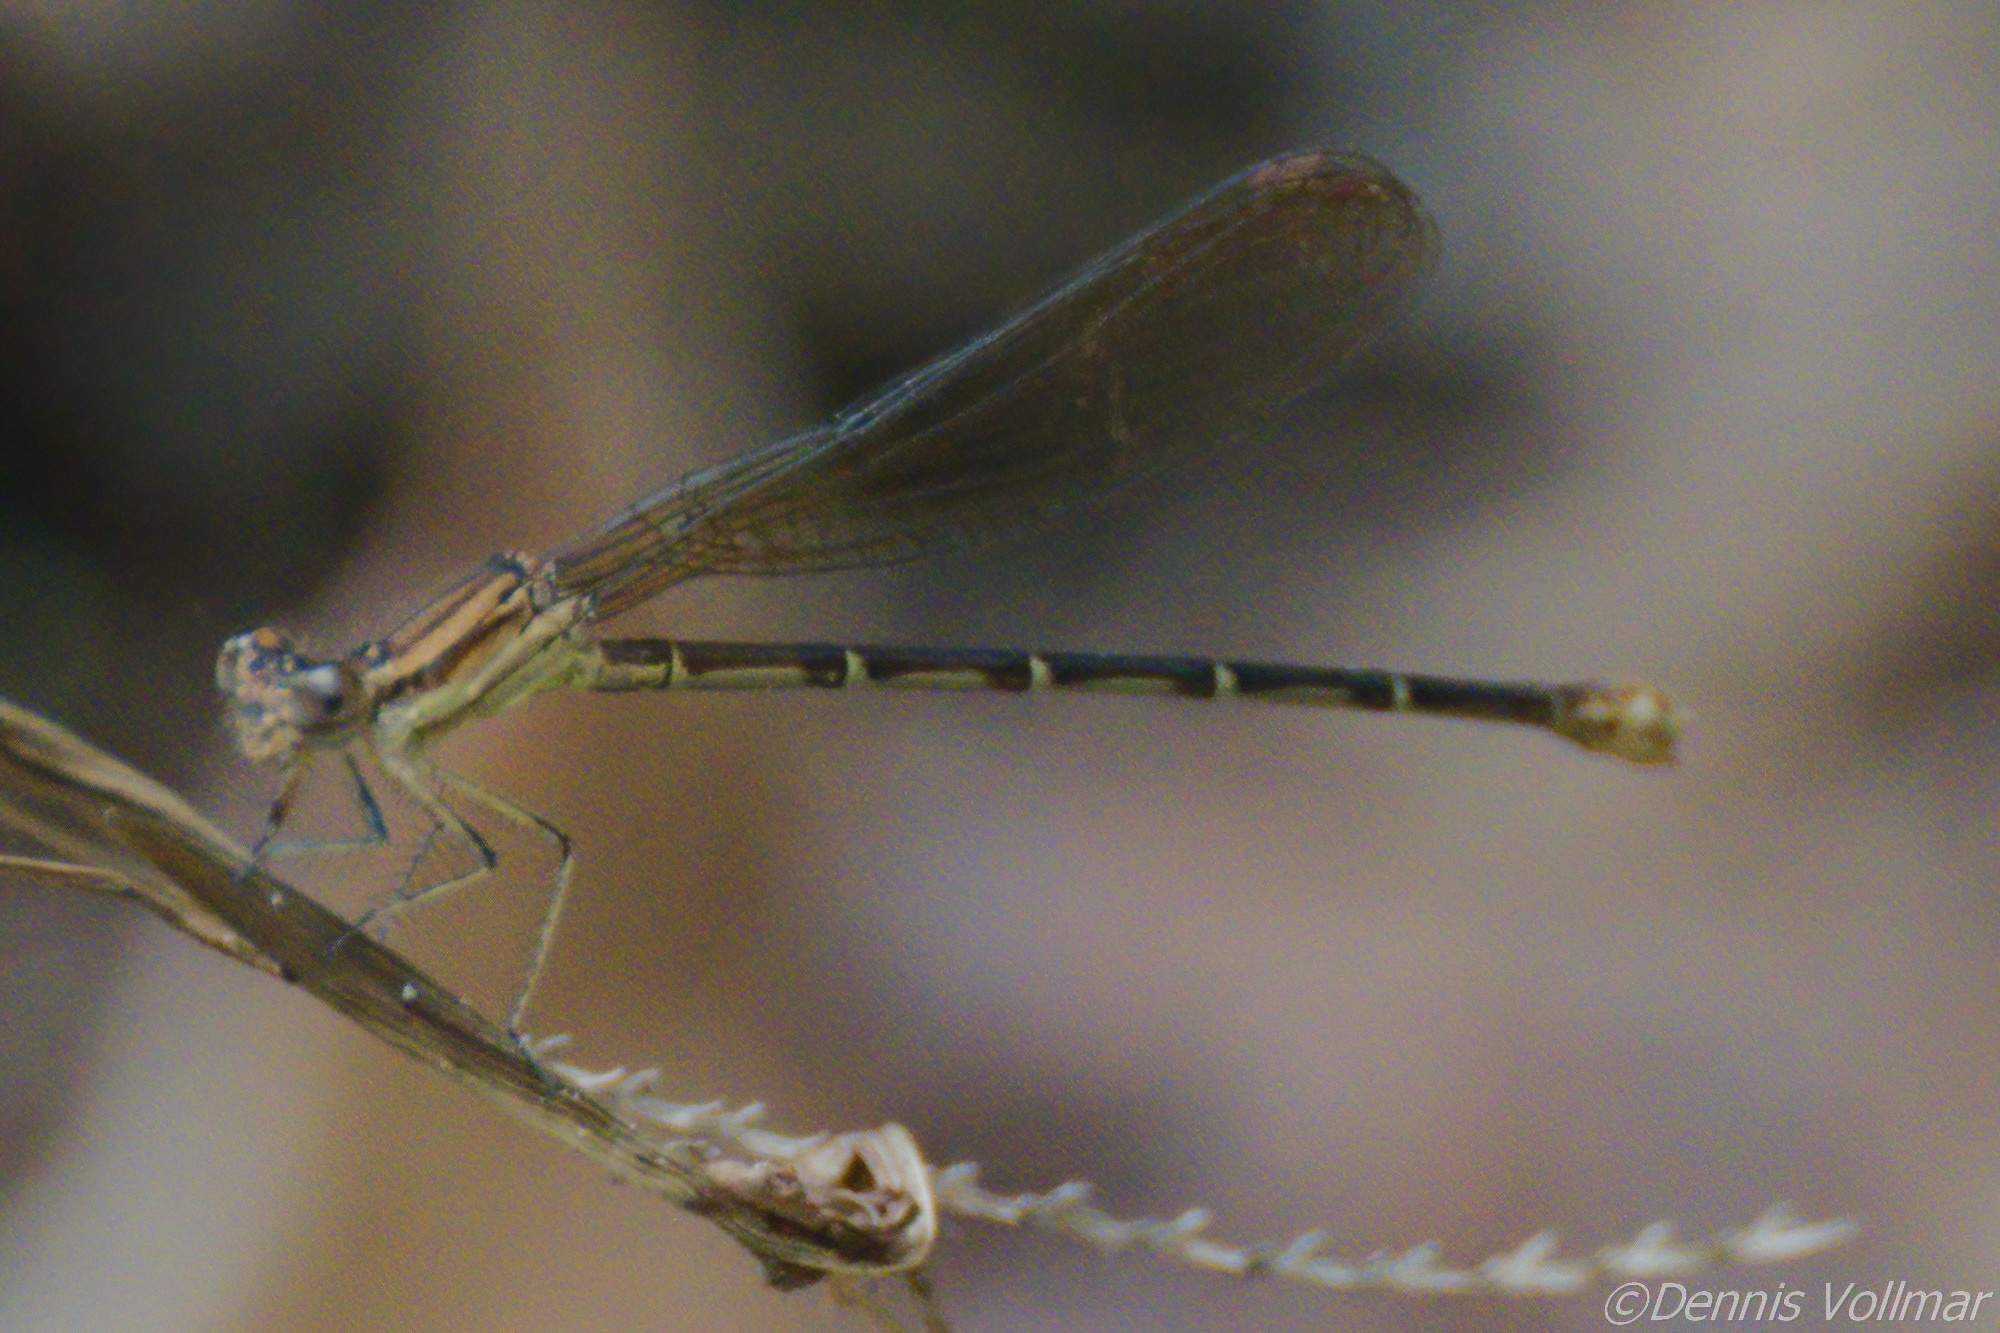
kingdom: Animalia
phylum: Arthropoda
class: Insecta
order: Odonata
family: Coenagrionidae
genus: Argia
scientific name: Argia sedula
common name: Blue-ringed dancer
